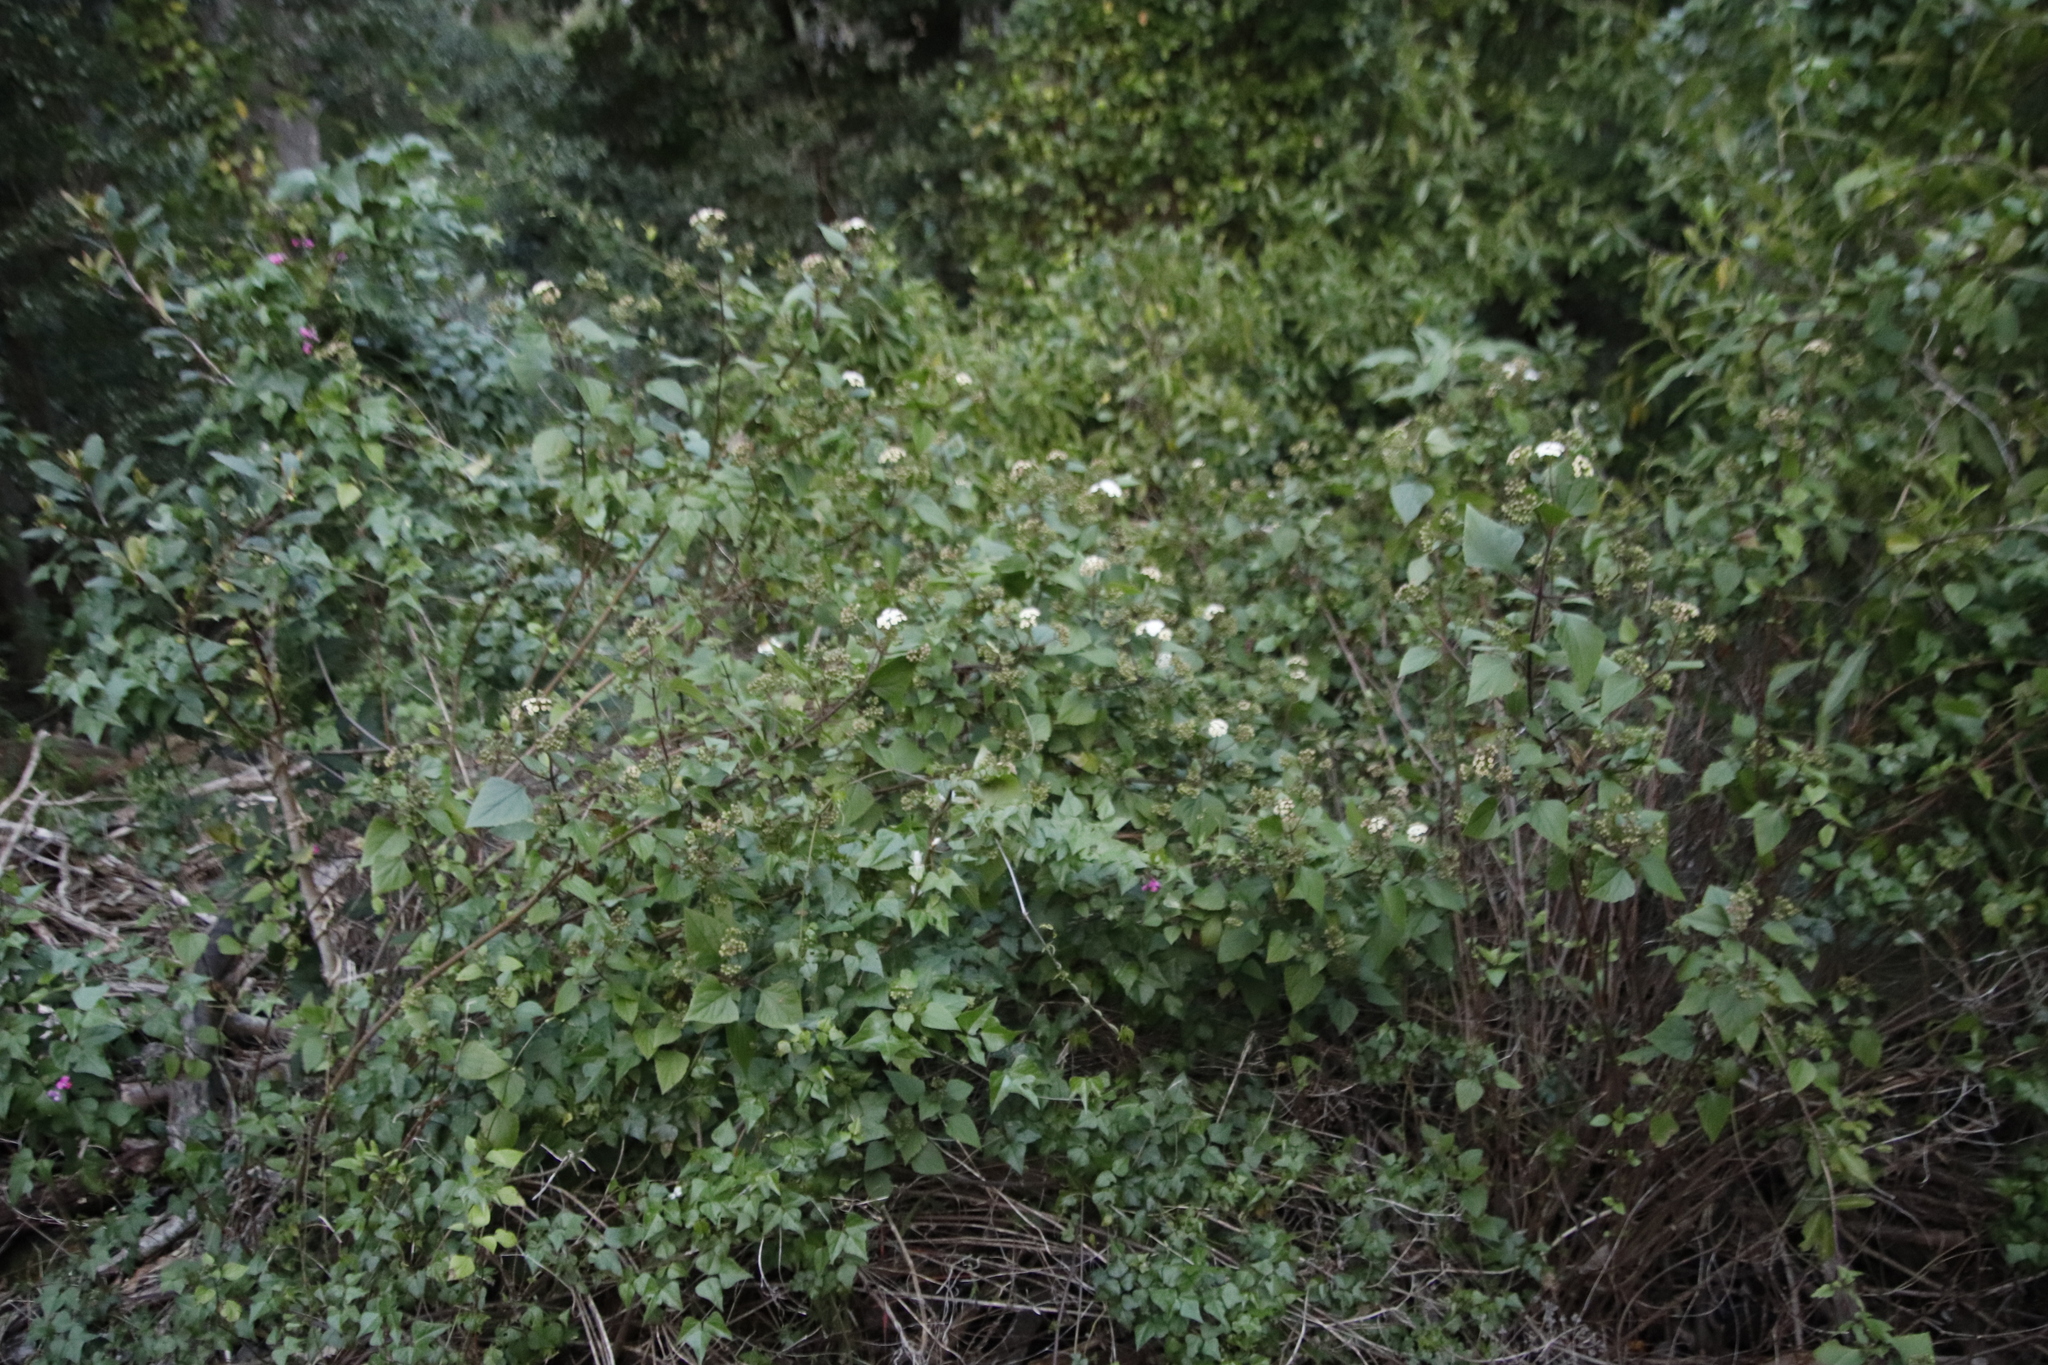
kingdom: Plantae
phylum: Tracheophyta
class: Magnoliopsida
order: Asterales
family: Asteraceae
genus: Ageratina
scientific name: Ageratina adenophora
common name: Sticky snakeroot
